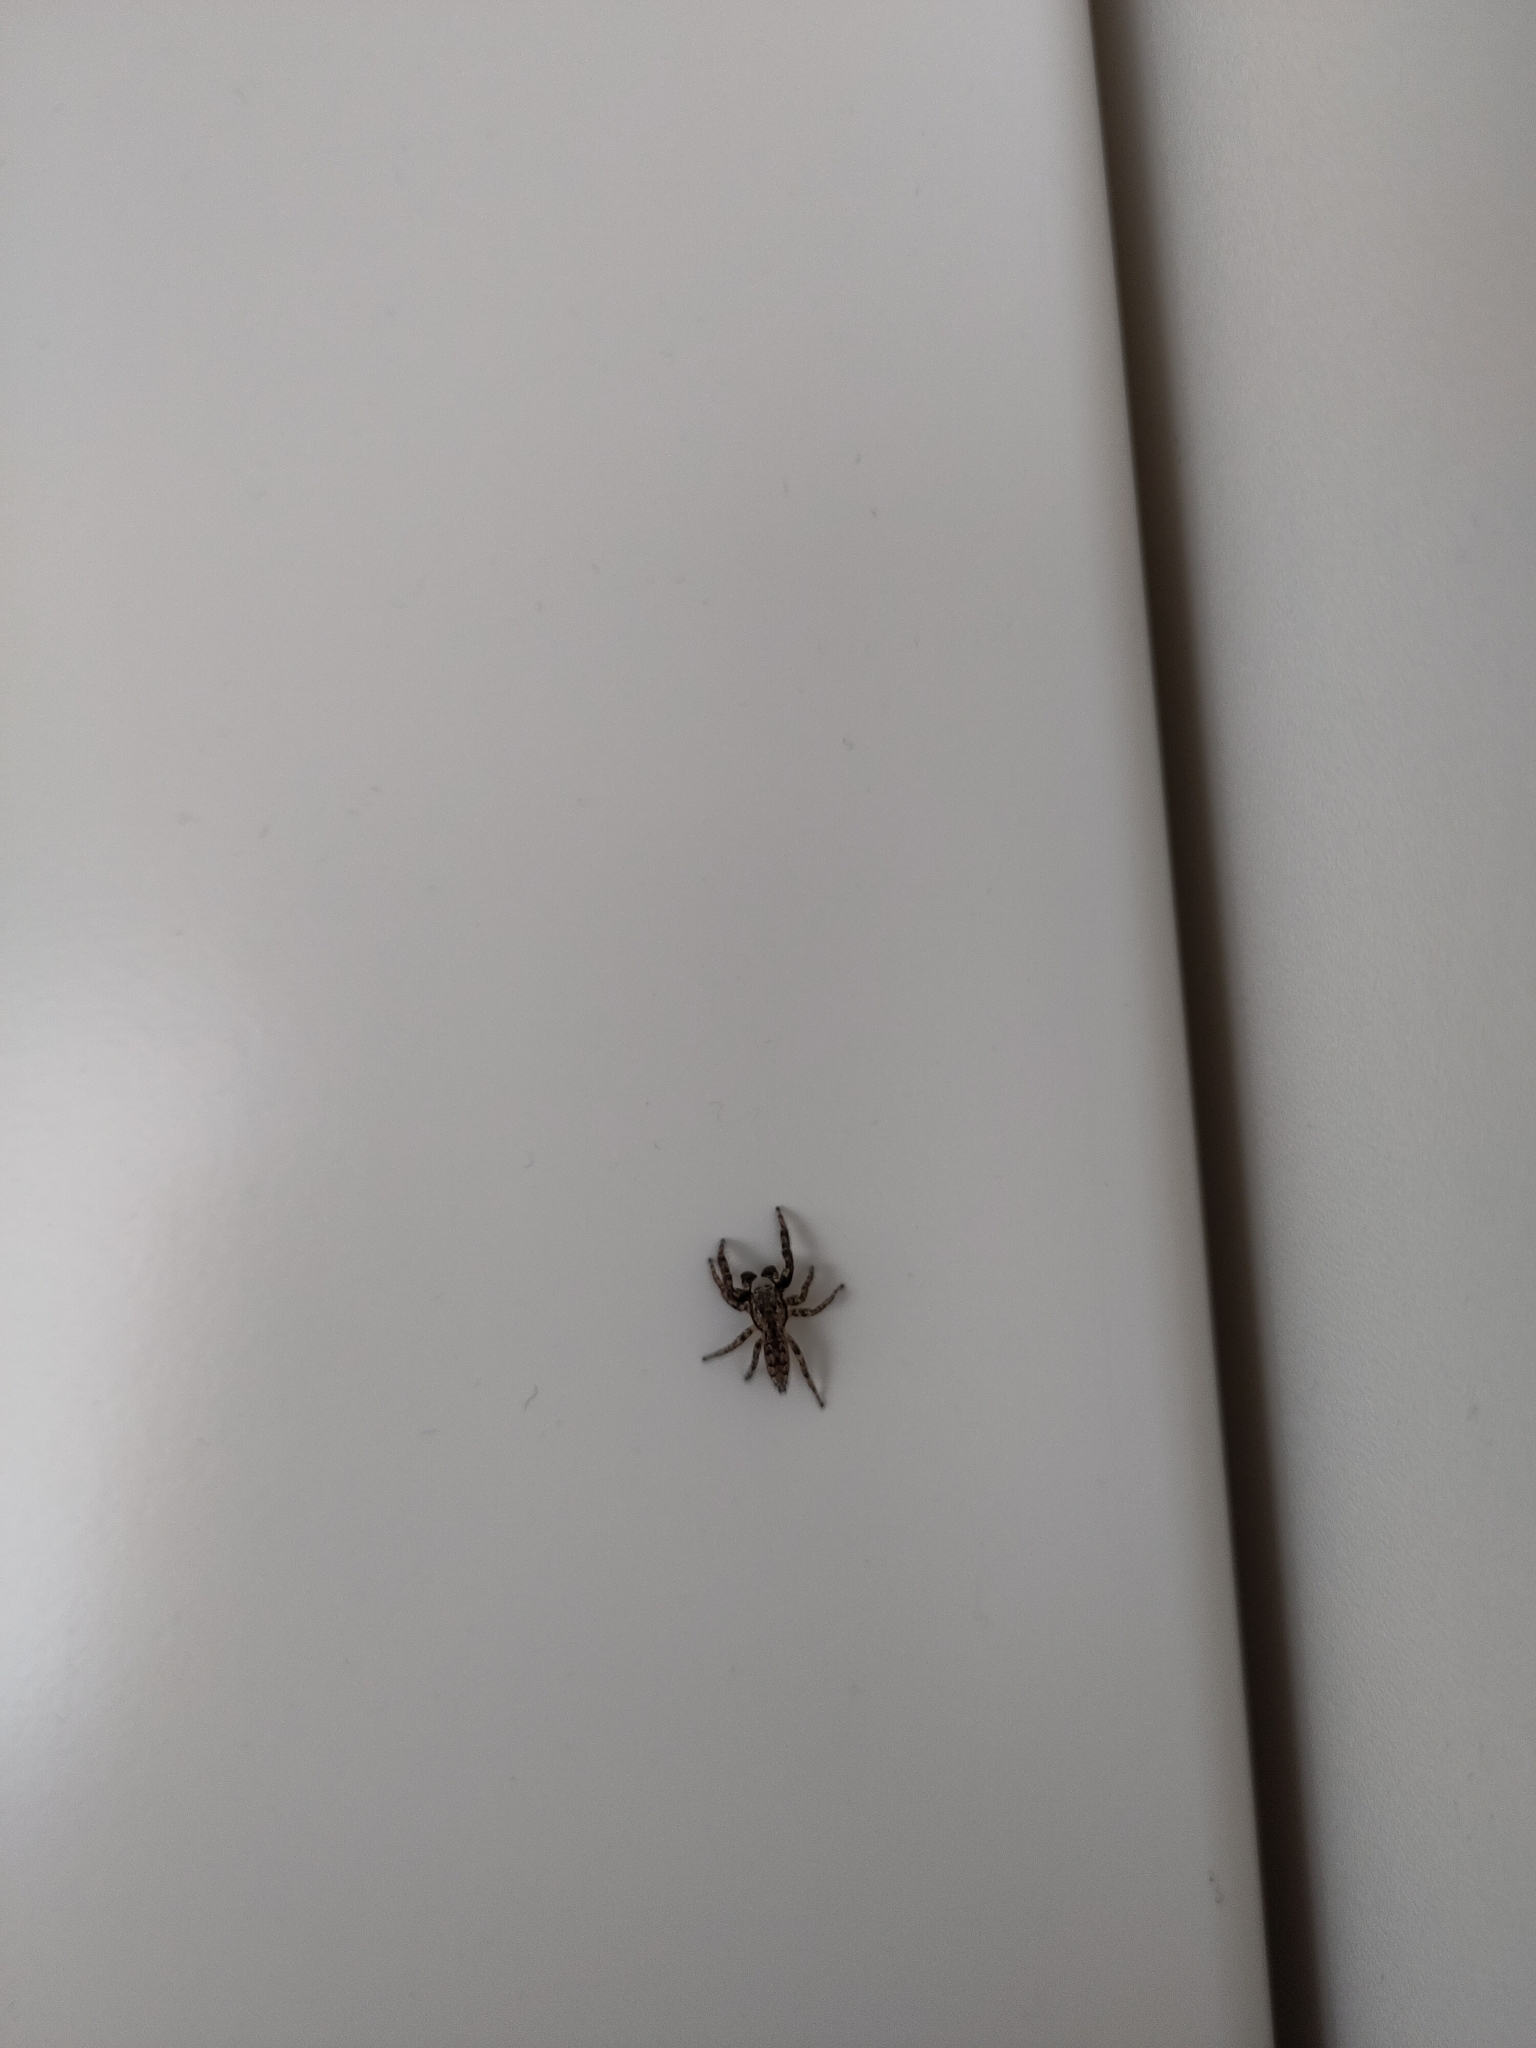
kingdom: Animalia
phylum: Arthropoda
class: Arachnida
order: Araneae
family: Salticidae
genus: Marpissa
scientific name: Marpissa muscosa
